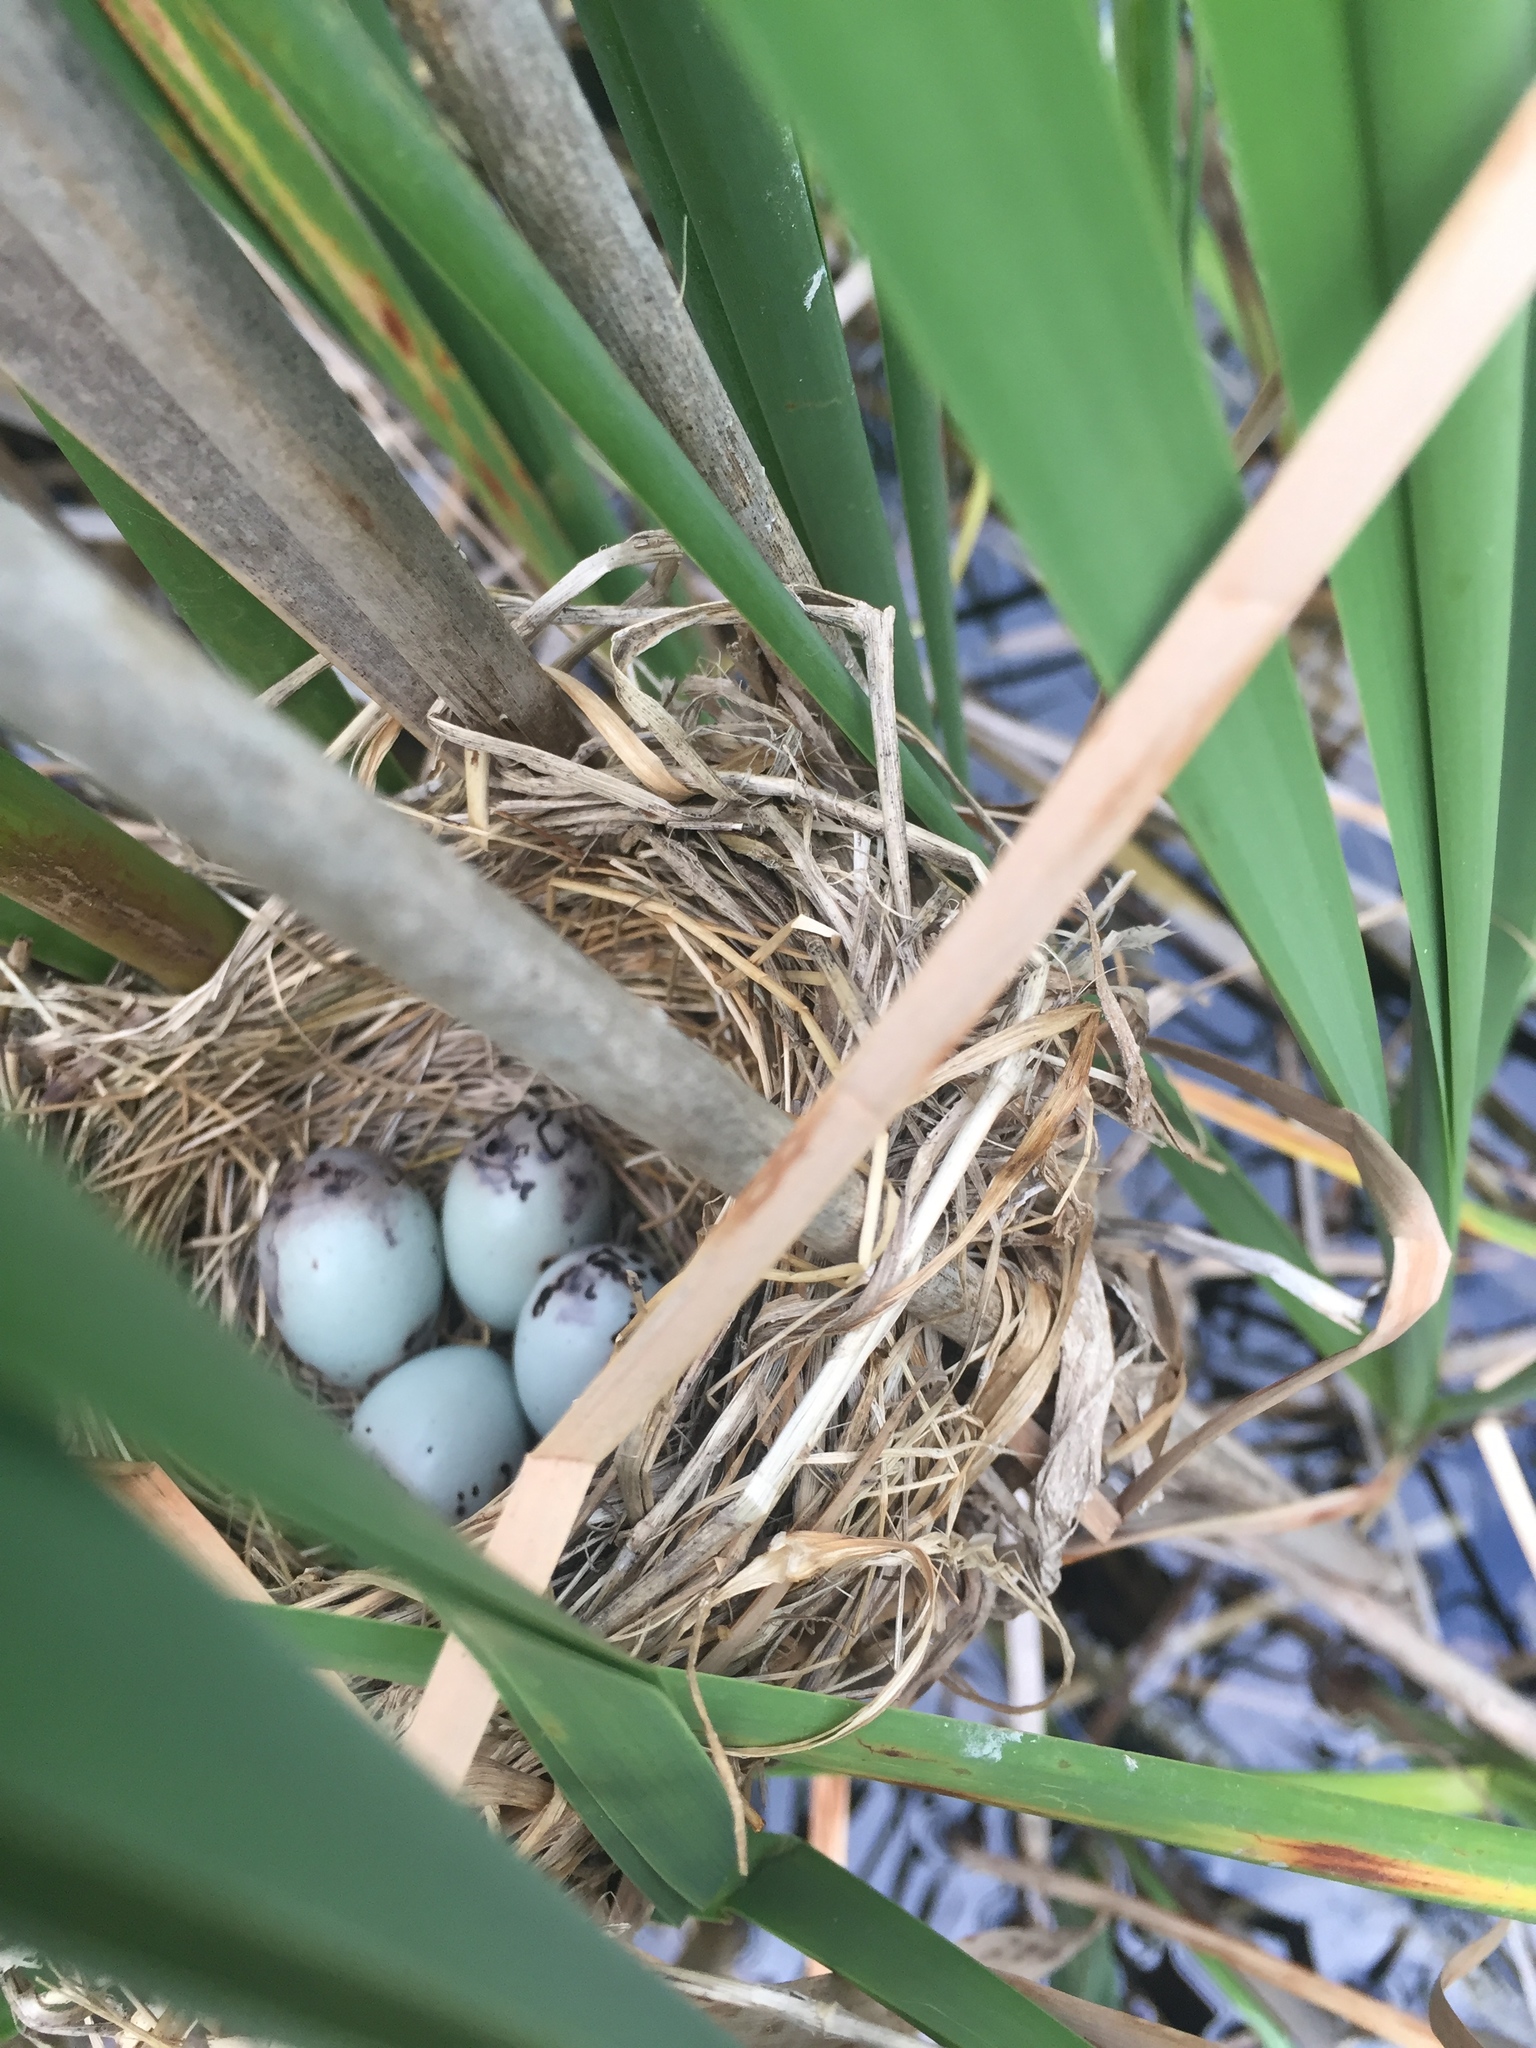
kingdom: Animalia
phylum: Chordata
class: Aves
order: Passeriformes
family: Icteridae
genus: Agelaius
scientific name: Agelaius phoeniceus
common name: Red-winged blackbird
